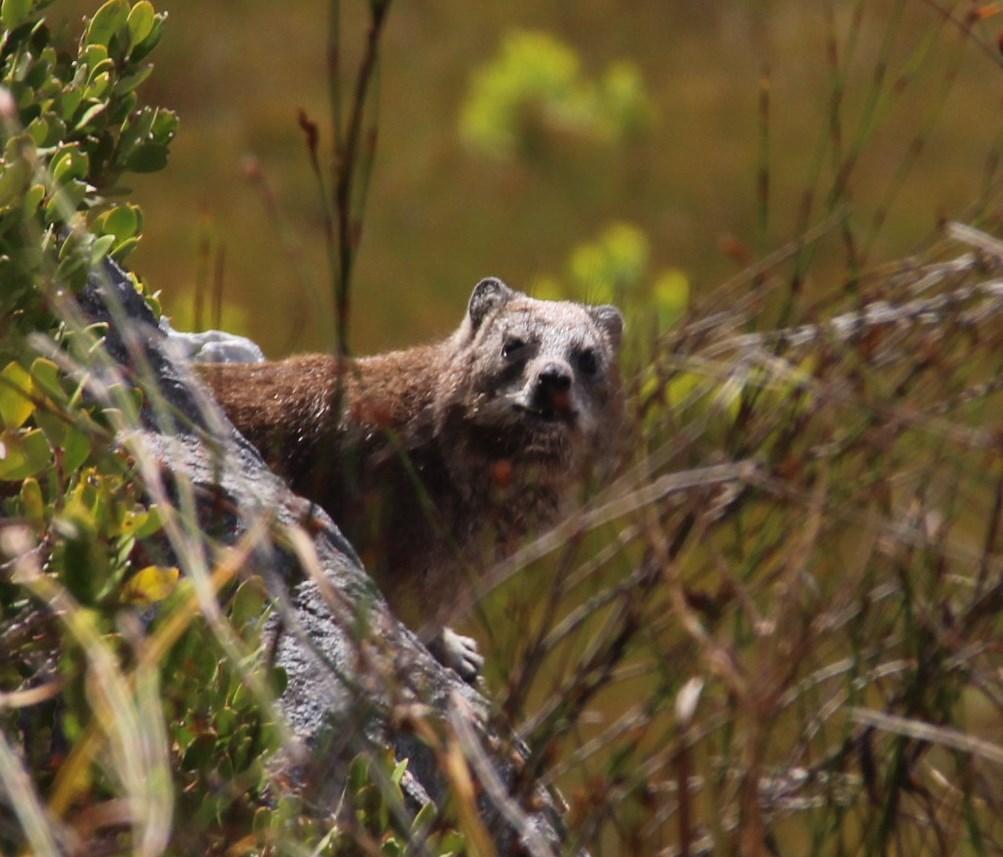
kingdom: Animalia
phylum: Chordata
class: Mammalia
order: Hyracoidea
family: Procaviidae
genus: Procavia
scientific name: Procavia capensis
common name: Rock hyrax
